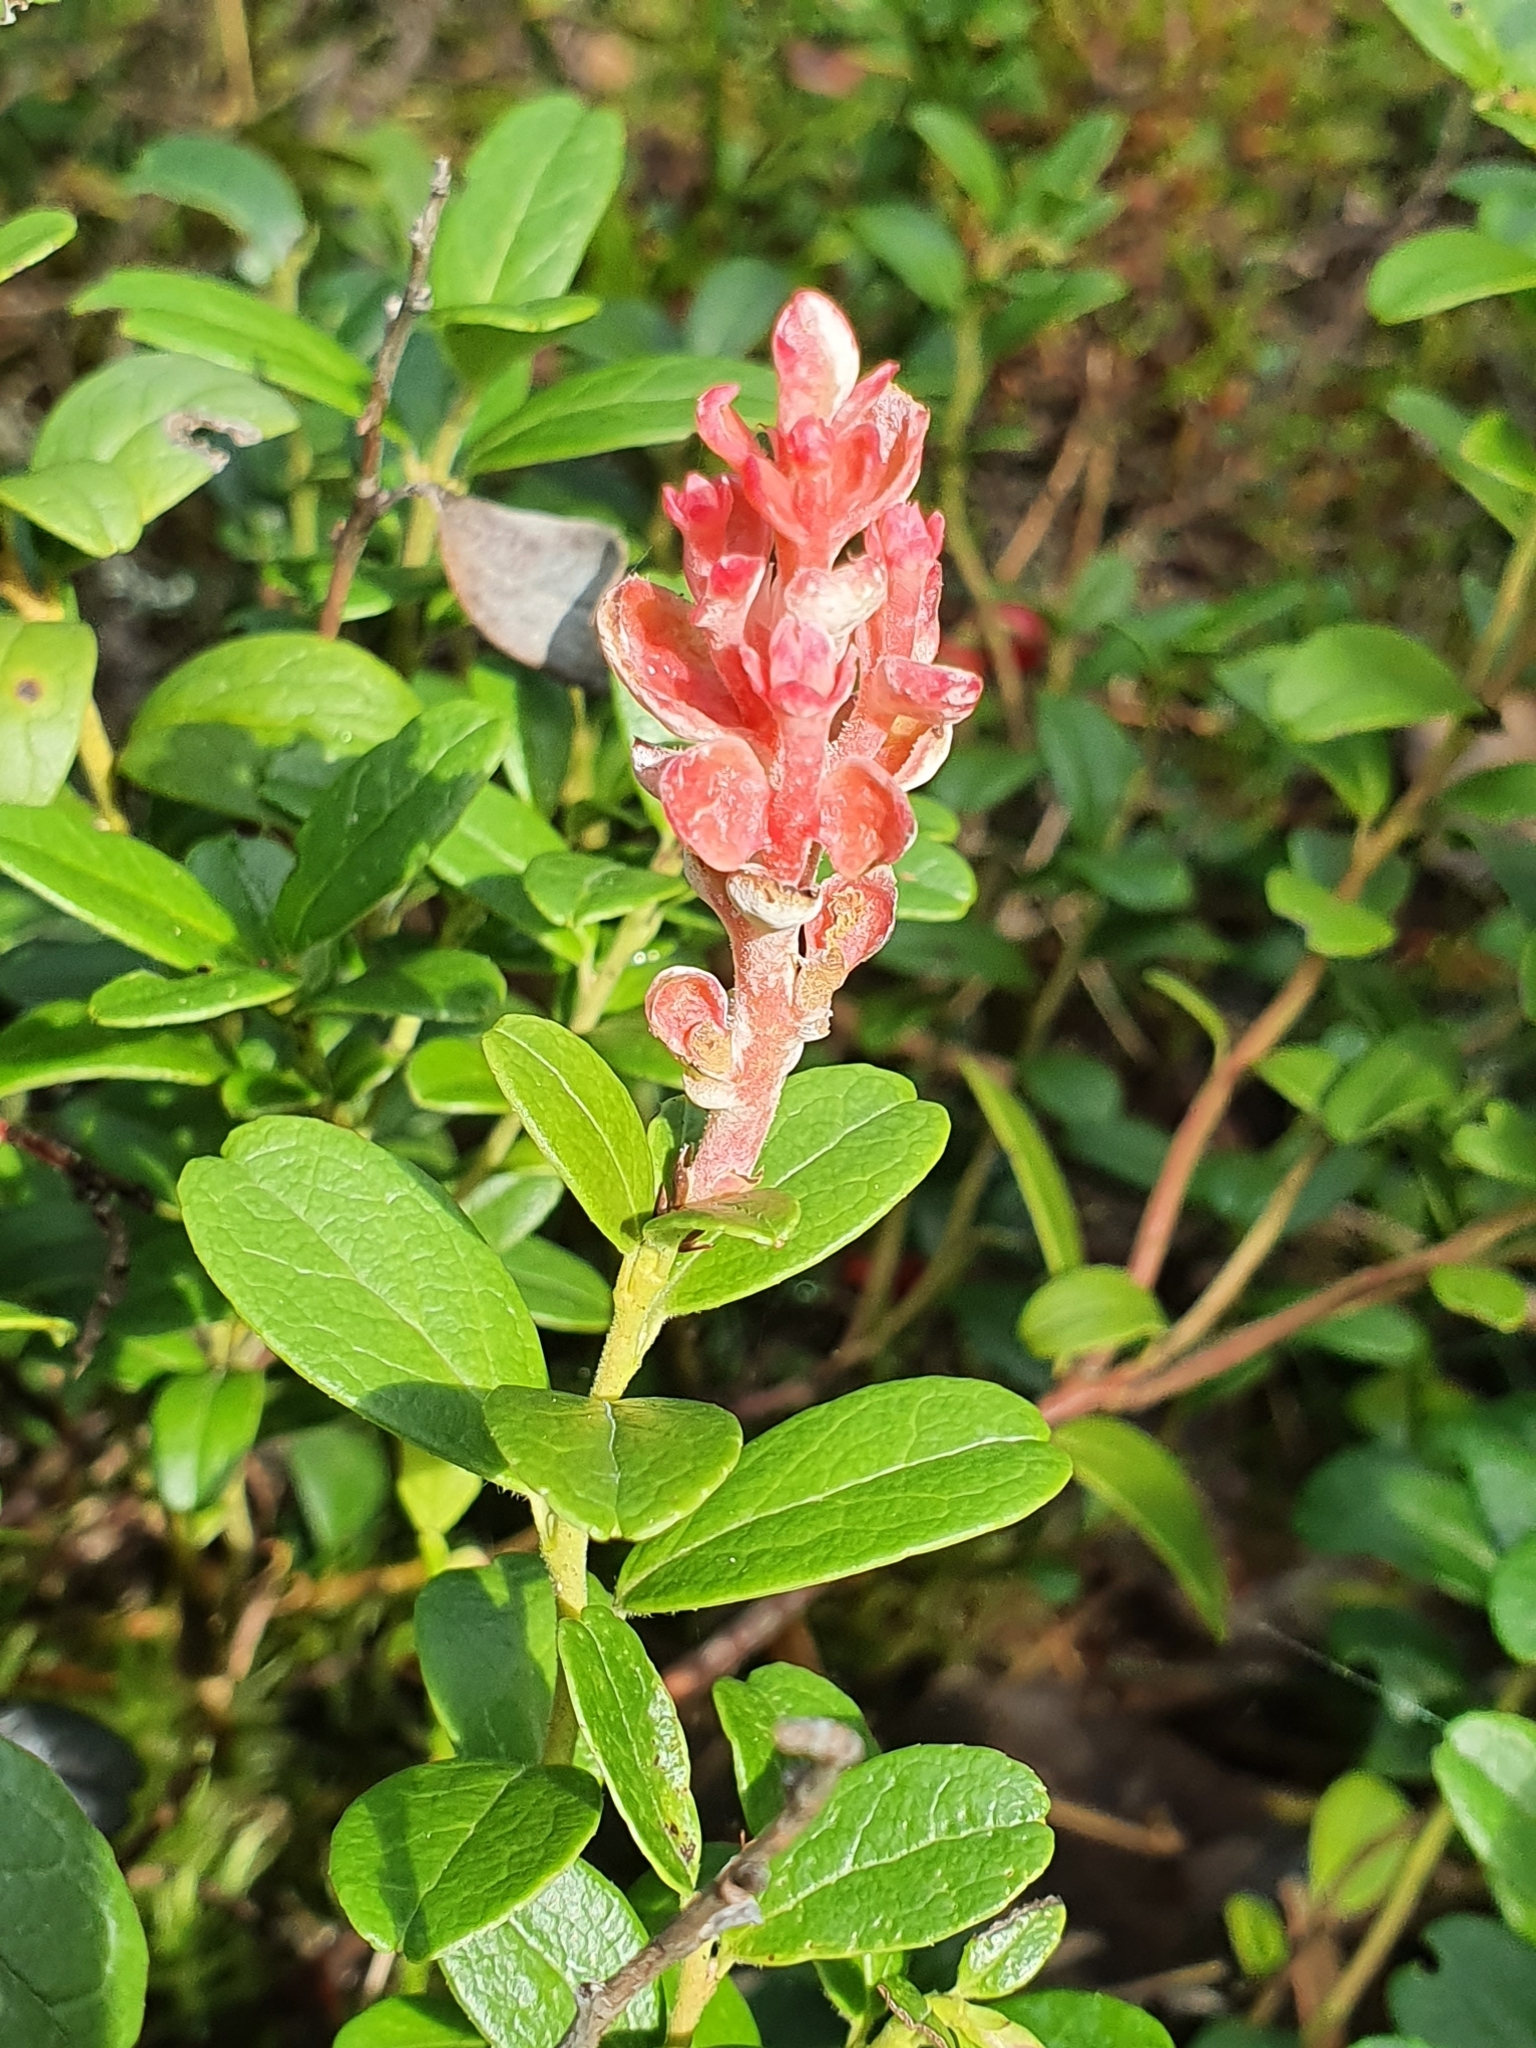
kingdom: Fungi
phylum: Basidiomycota
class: Exobasidiomycetes
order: Exobasidiales
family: Exobasidiaceae
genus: Exobasidium
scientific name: Exobasidium vaccinii
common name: Cowberry redleaf
